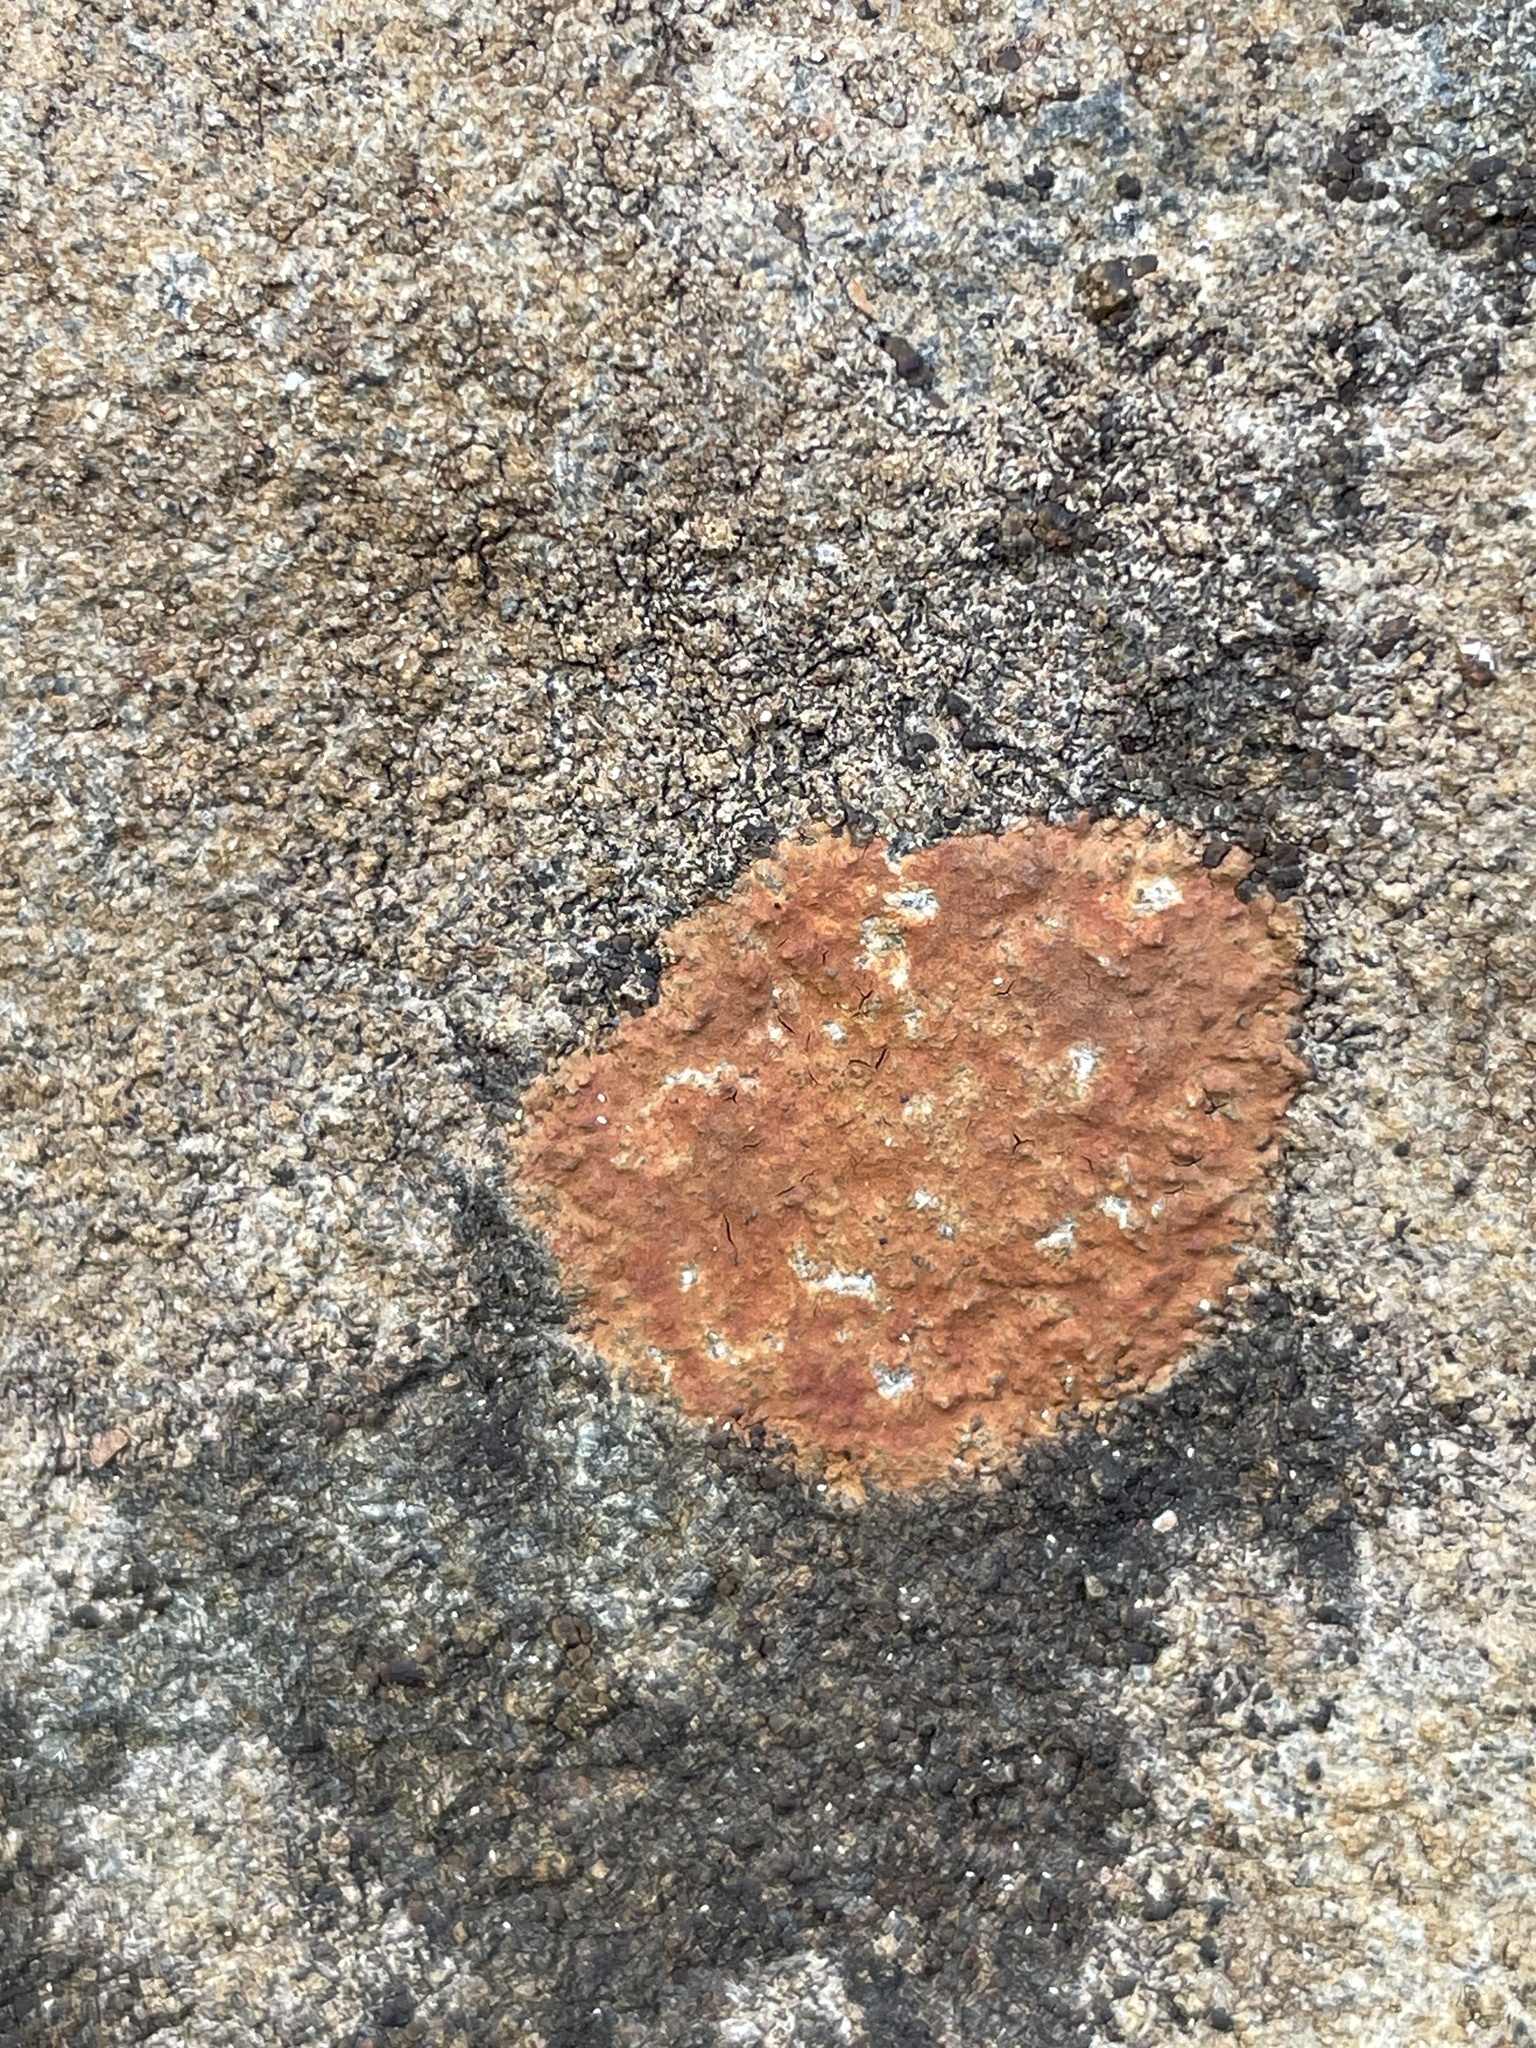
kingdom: Fungi
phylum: Ascomycota
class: Lecanoromycetes
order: Hymeneliales
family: Hymeneliaceae
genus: Ionaspis
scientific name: Ionaspis lacustris
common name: Rusty brook lichen
